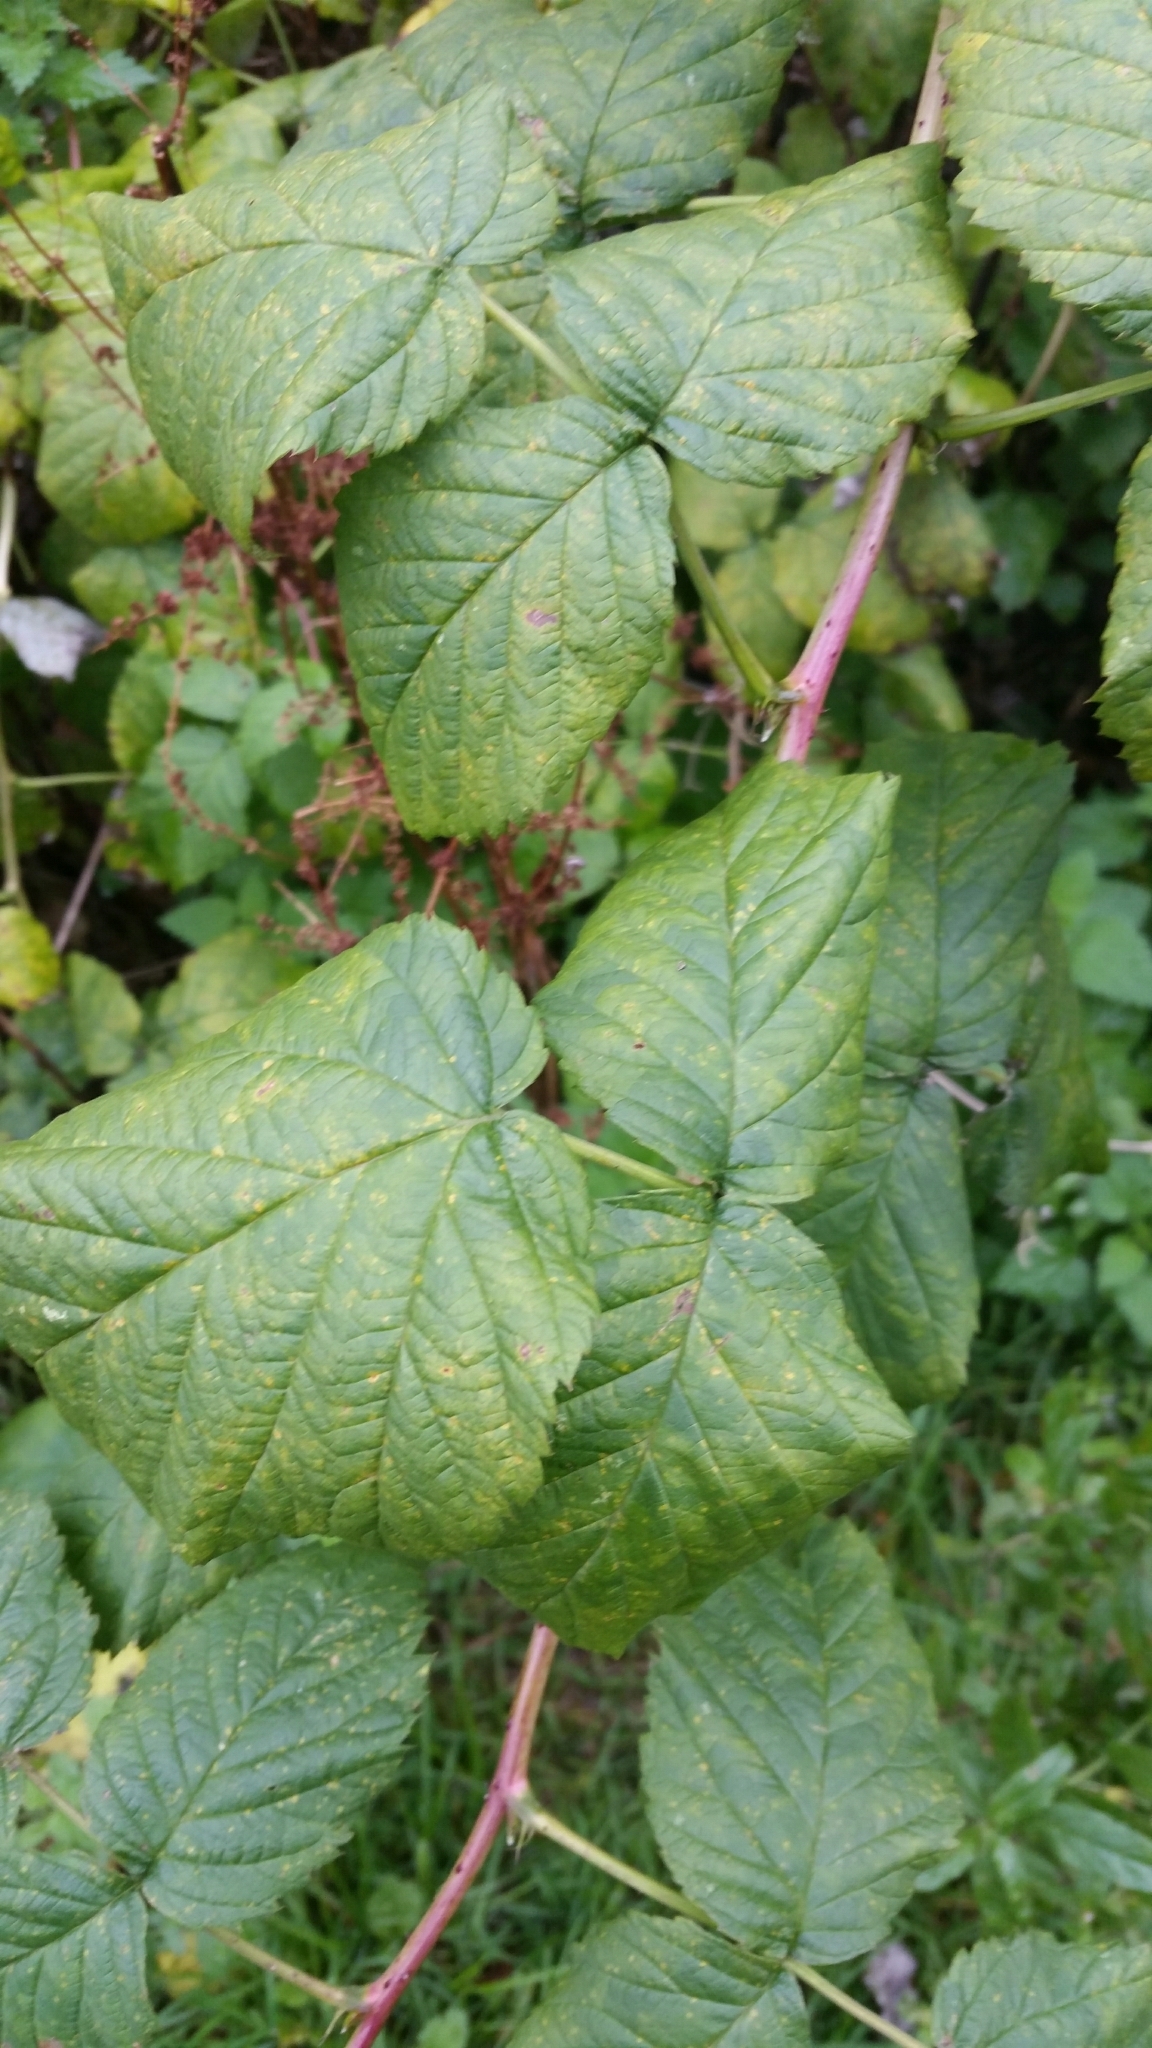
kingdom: Plantae
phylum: Tracheophyta
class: Magnoliopsida
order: Rosales
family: Rosaceae
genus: Rubus
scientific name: Rubus idaeus
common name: Raspberry
